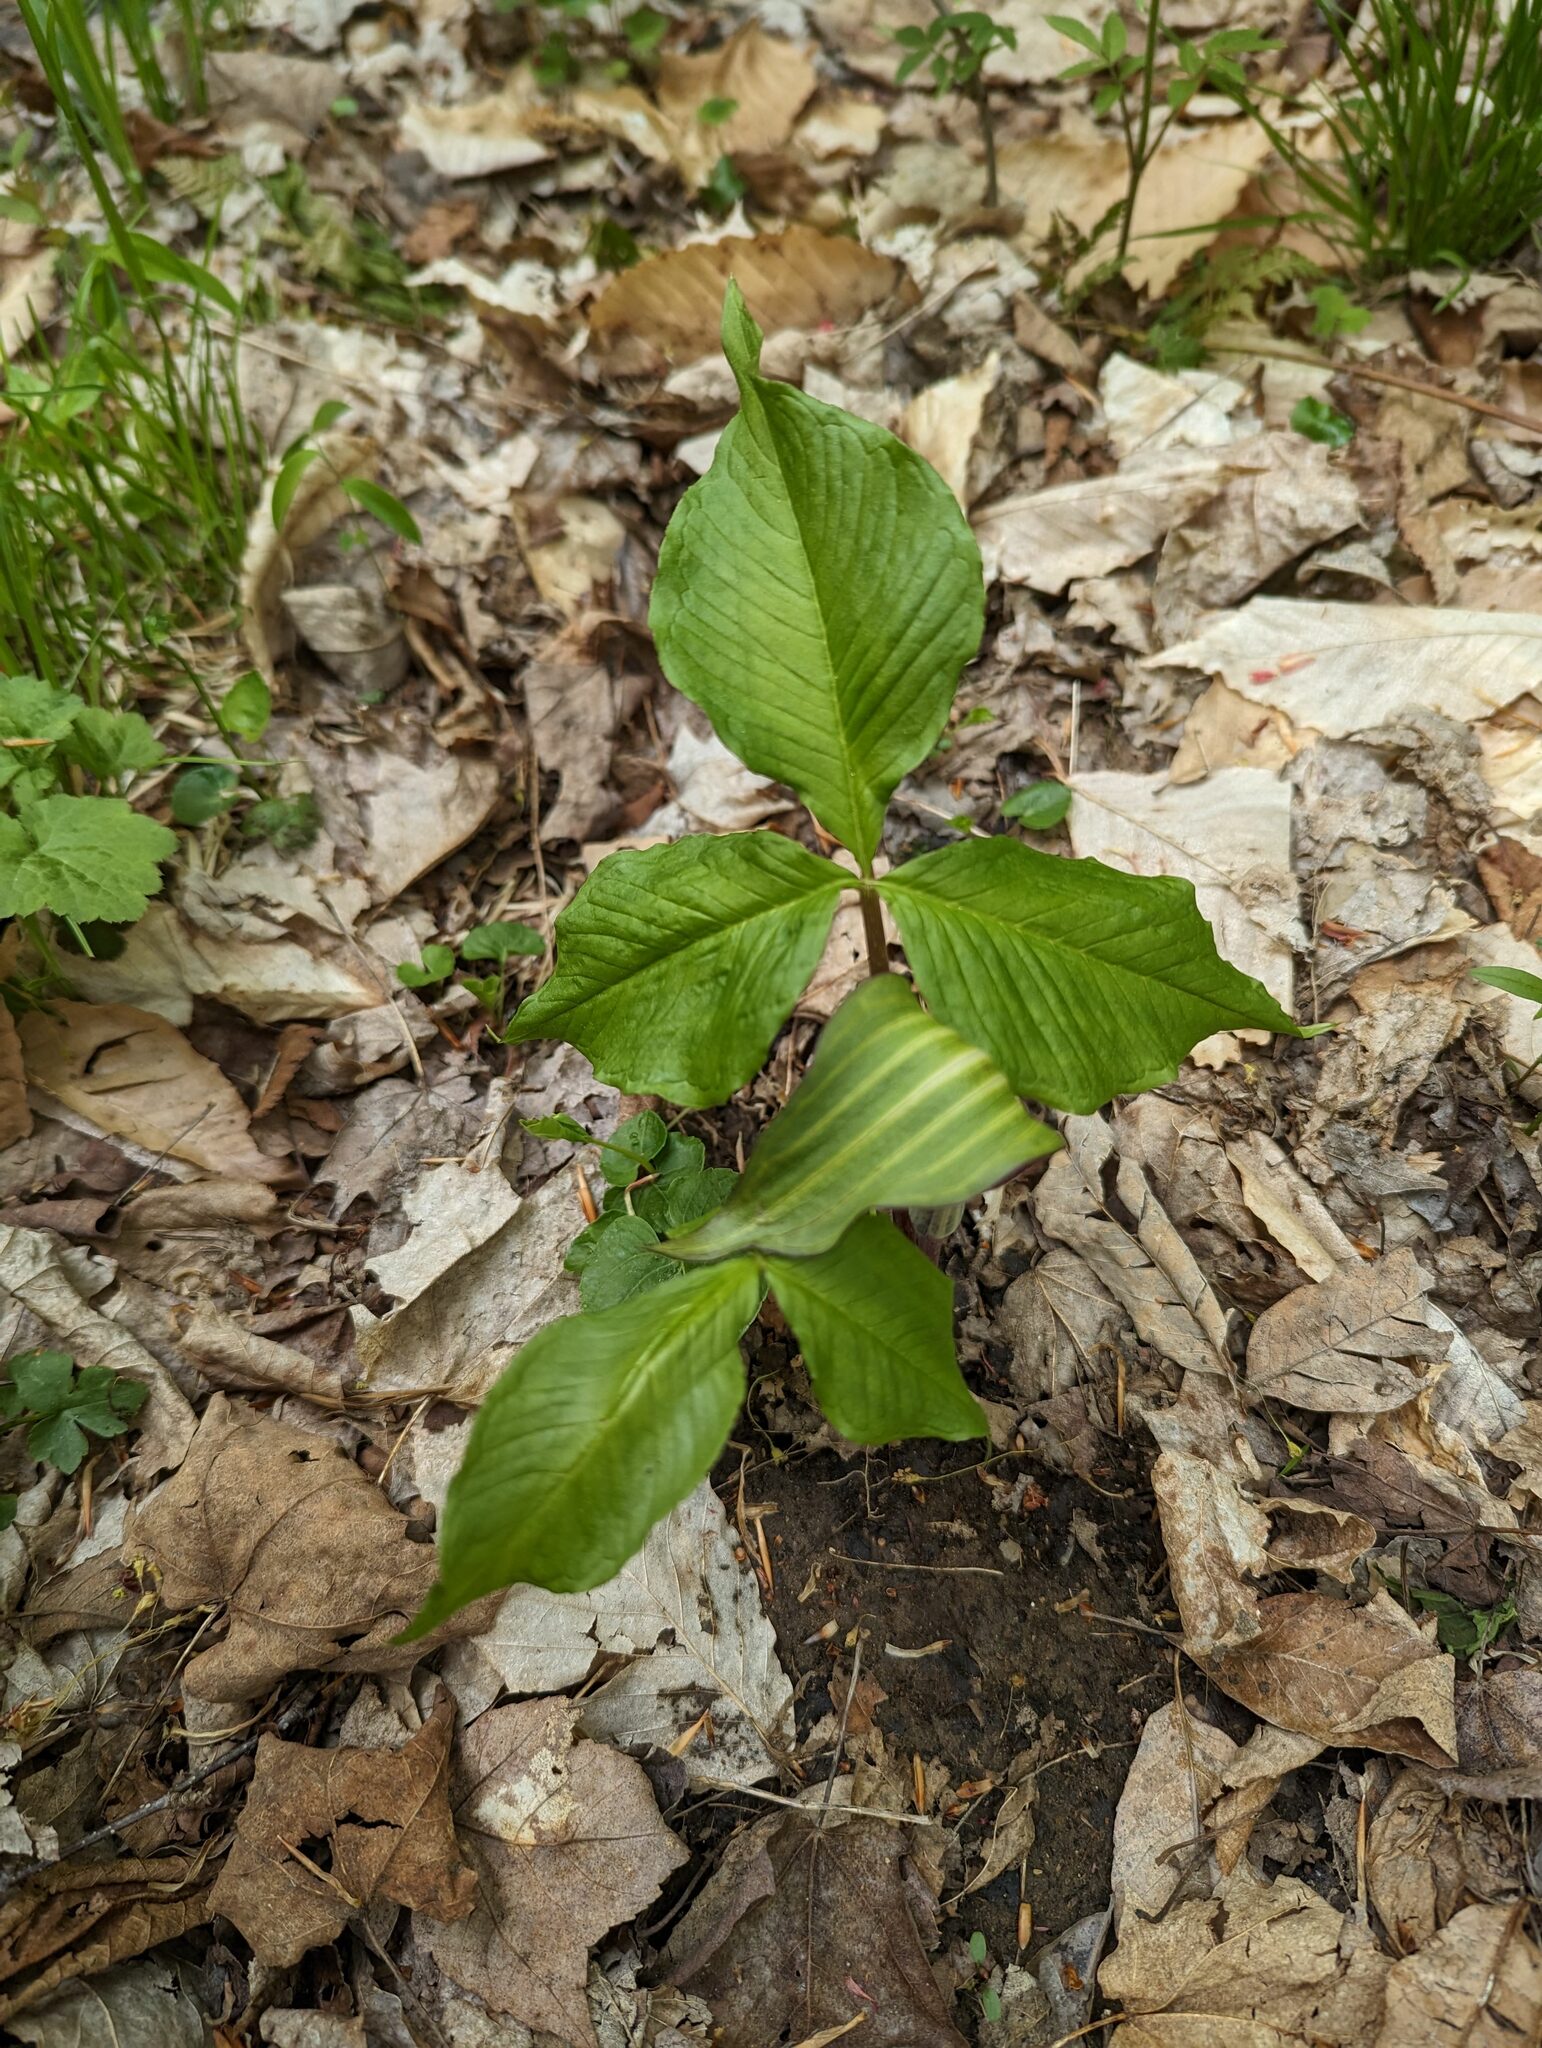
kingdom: Plantae
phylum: Tracheophyta
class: Liliopsida
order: Alismatales
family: Araceae
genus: Arisaema
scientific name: Arisaema triphyllum
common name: Jack-in-the-pulpit
